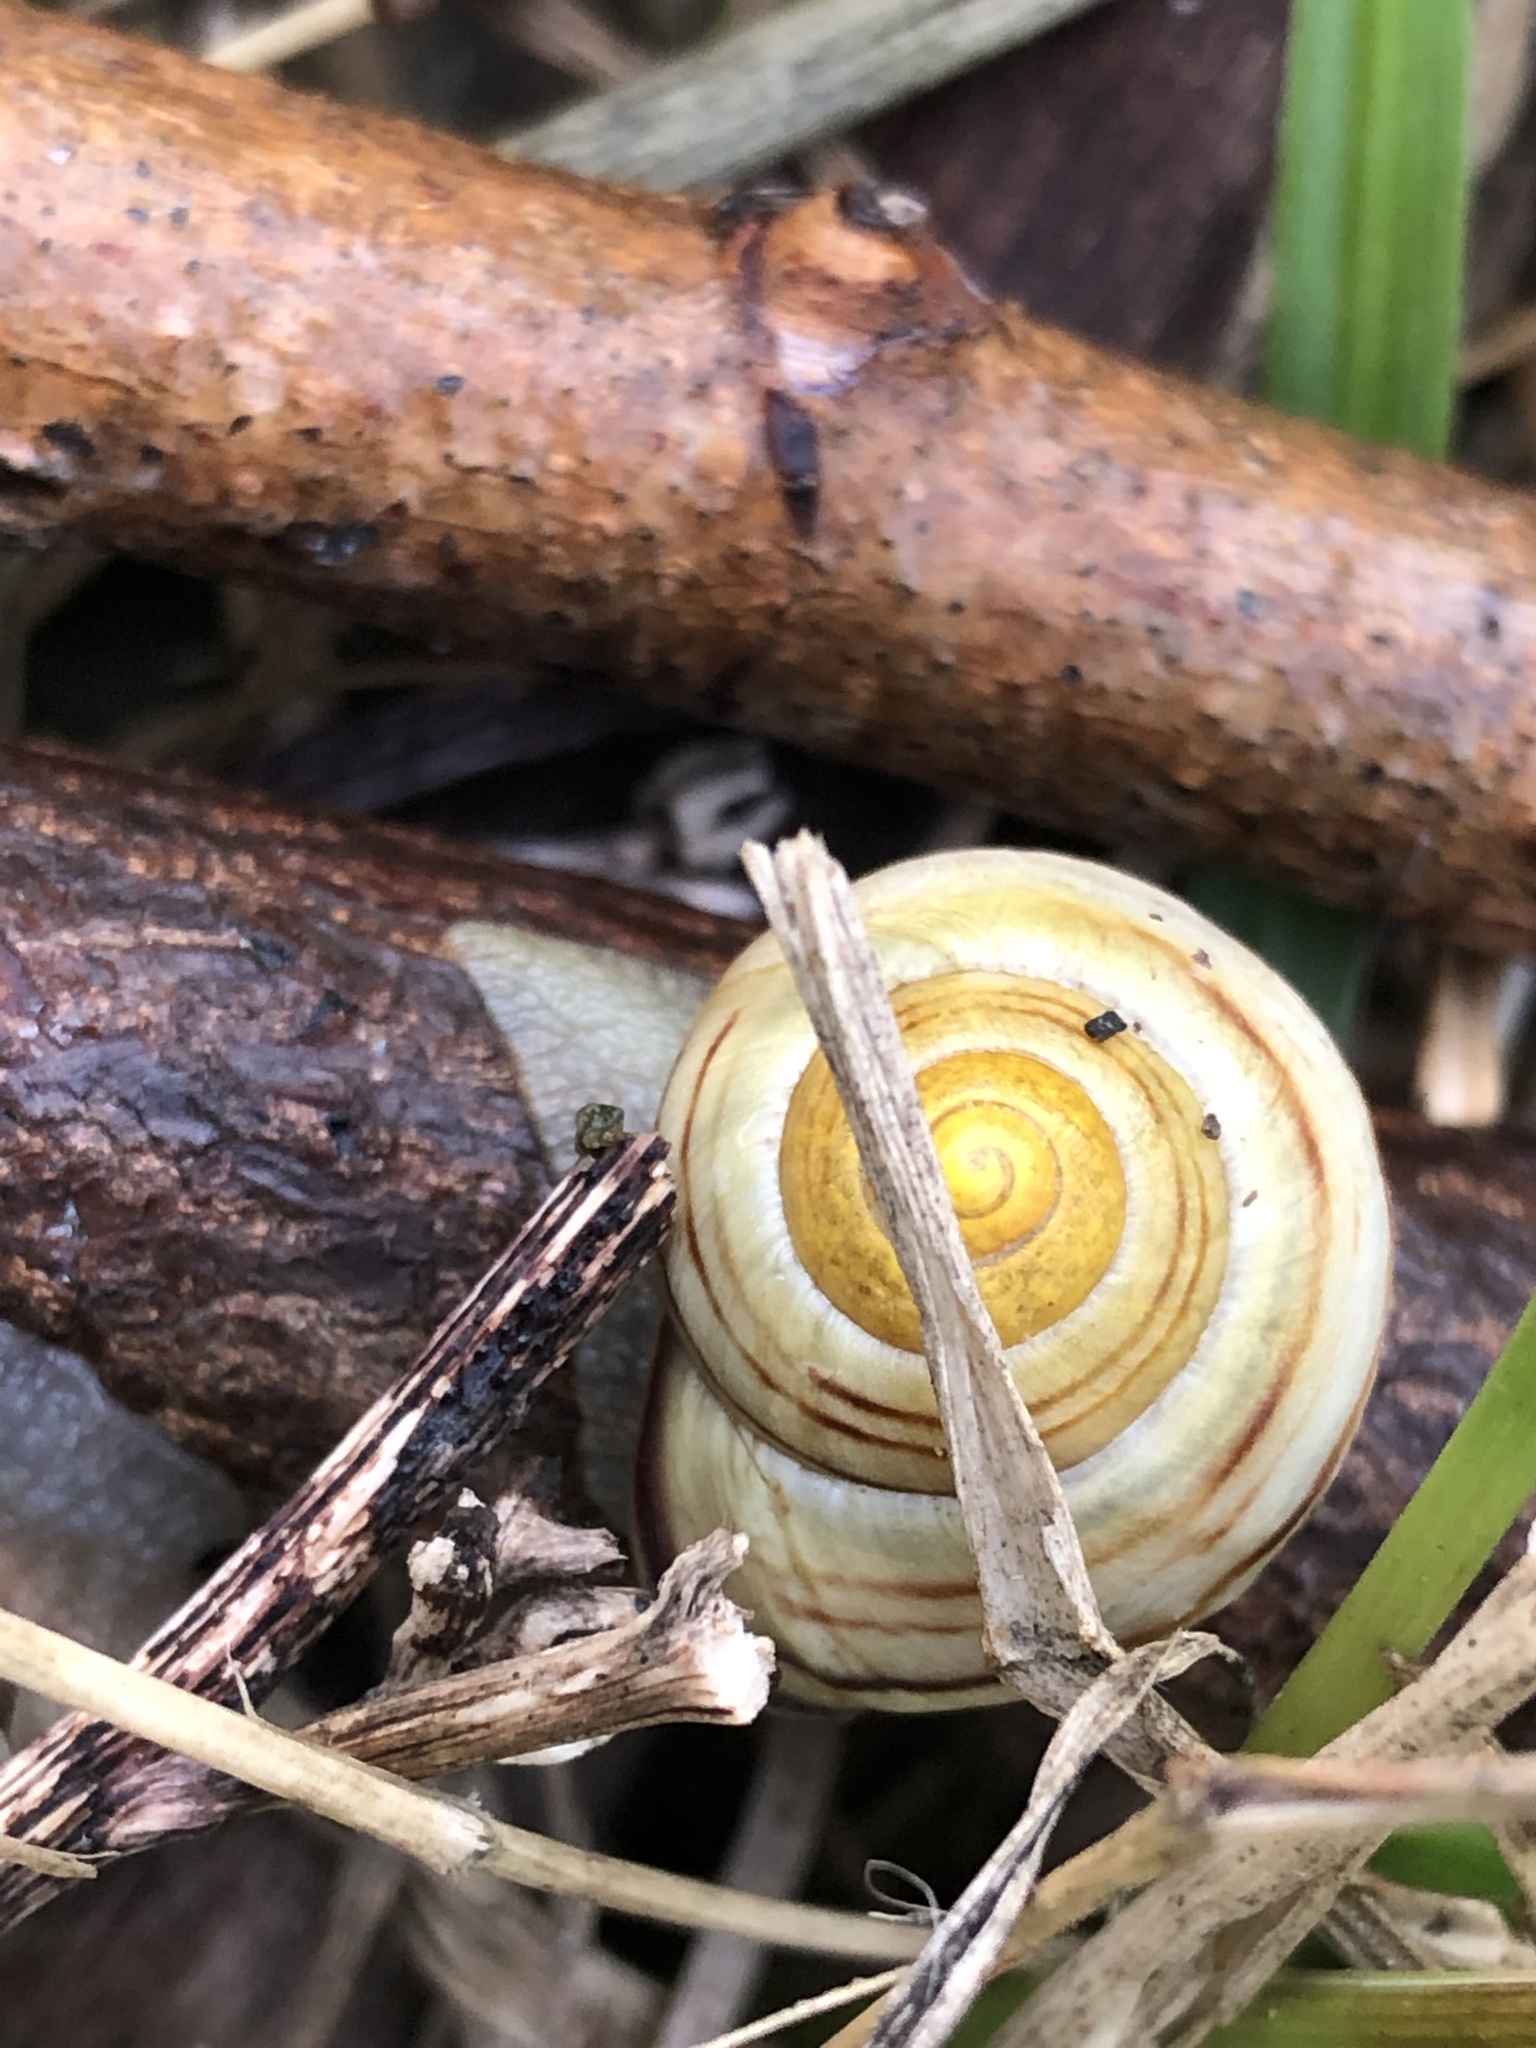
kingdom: Animalia
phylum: Mollusca
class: Gastropoda
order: Stylommatophora
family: Helicidae
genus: Cepaea
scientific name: Cepaea nemoralis
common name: Grovesnail
